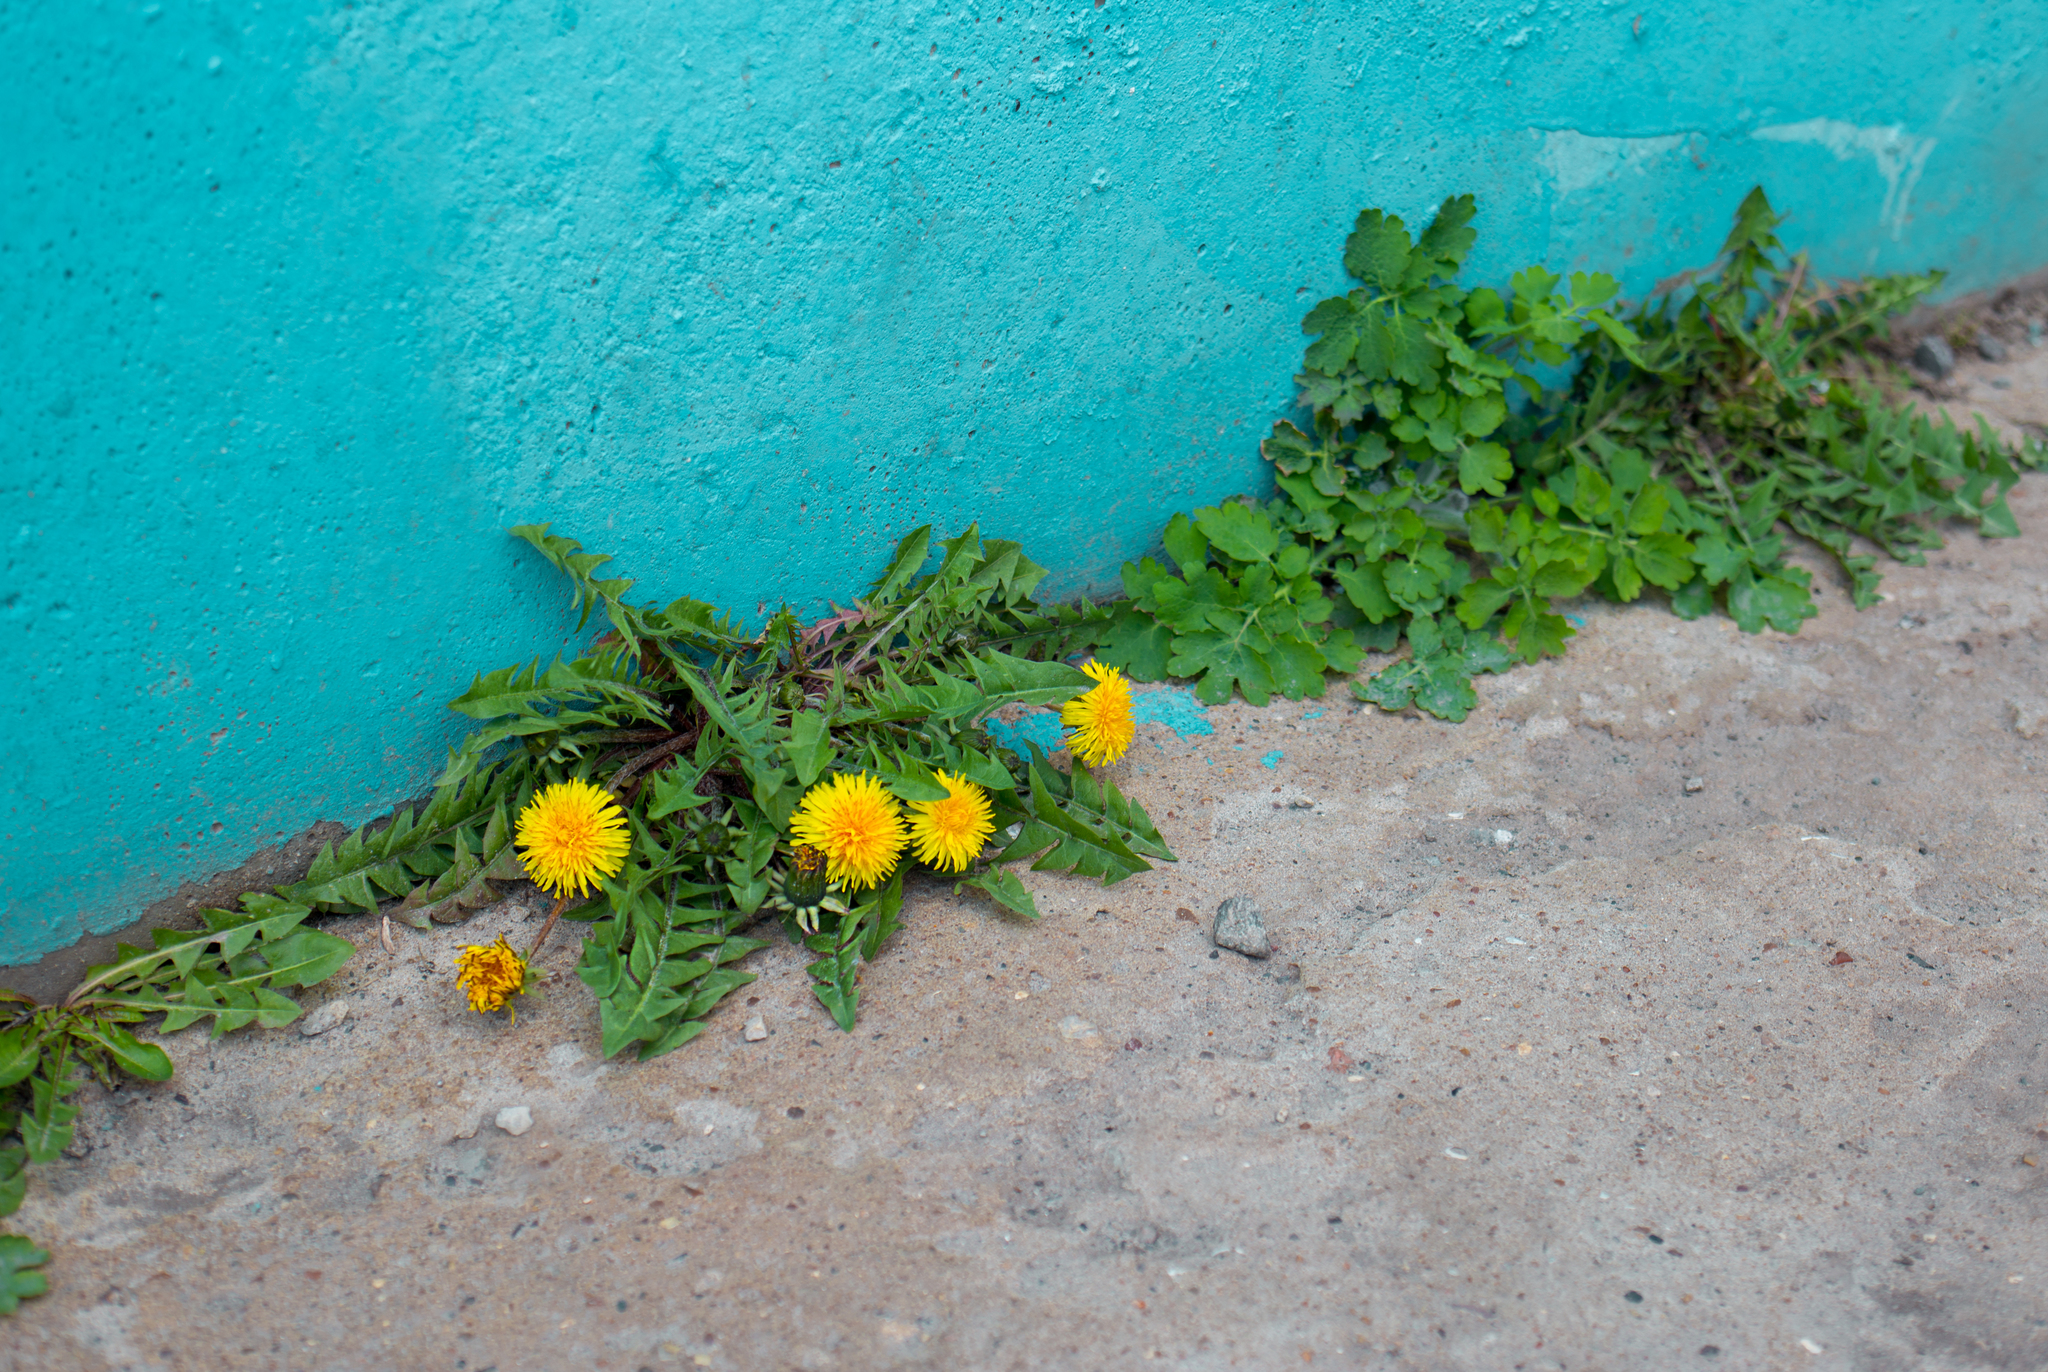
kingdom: Plantae
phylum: Tracheophyta
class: Magnoliopsida
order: Asterales
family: Asteraceae
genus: Taraxacum
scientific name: Taraxacum officinale
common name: Common dandelion
